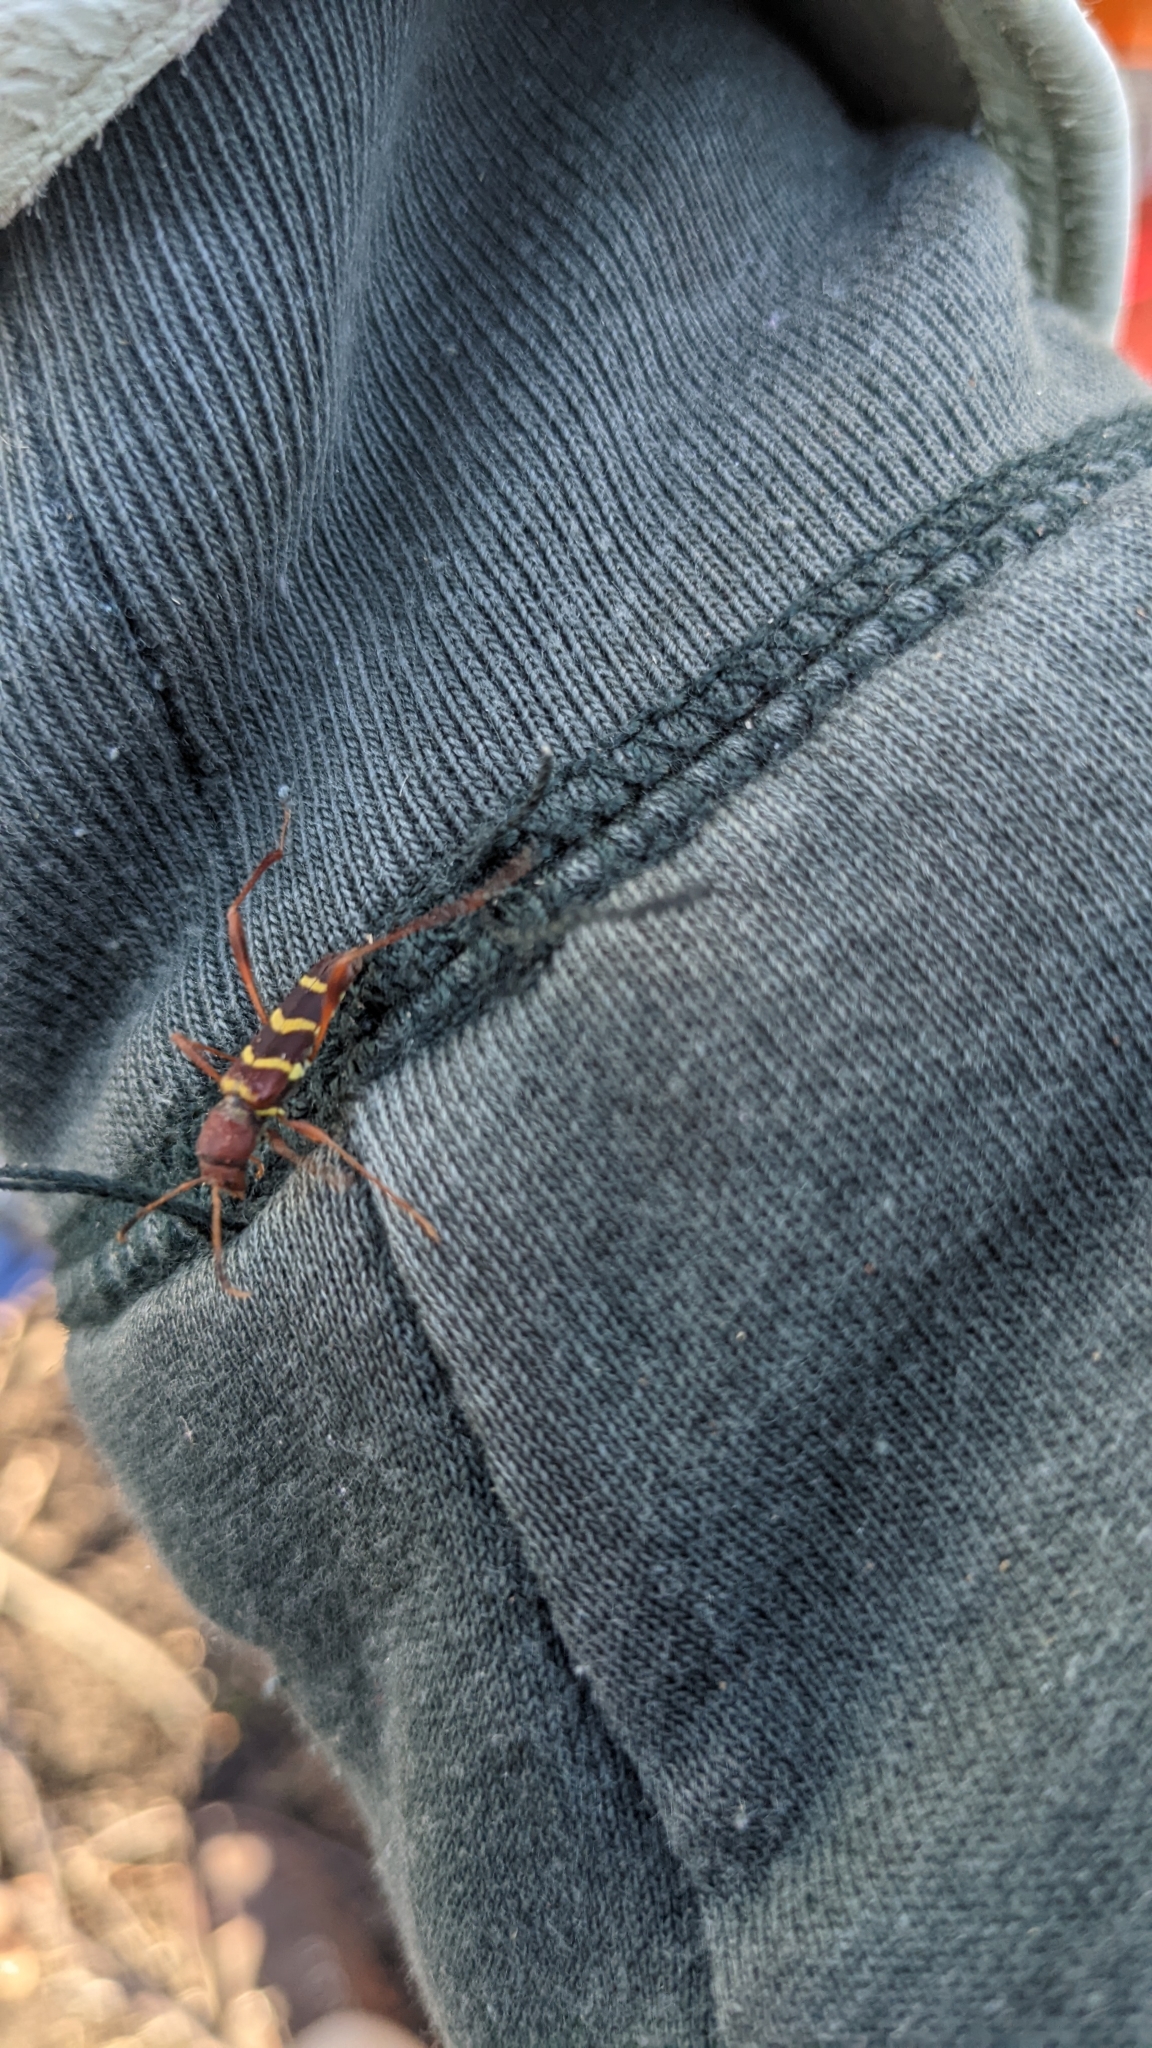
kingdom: Animalia
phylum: Arthropoda
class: Insecta
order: Coleoptera
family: Cerambycidae
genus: Neoclytus
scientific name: Neoclytus acuminatus
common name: Read-headed ash borer
